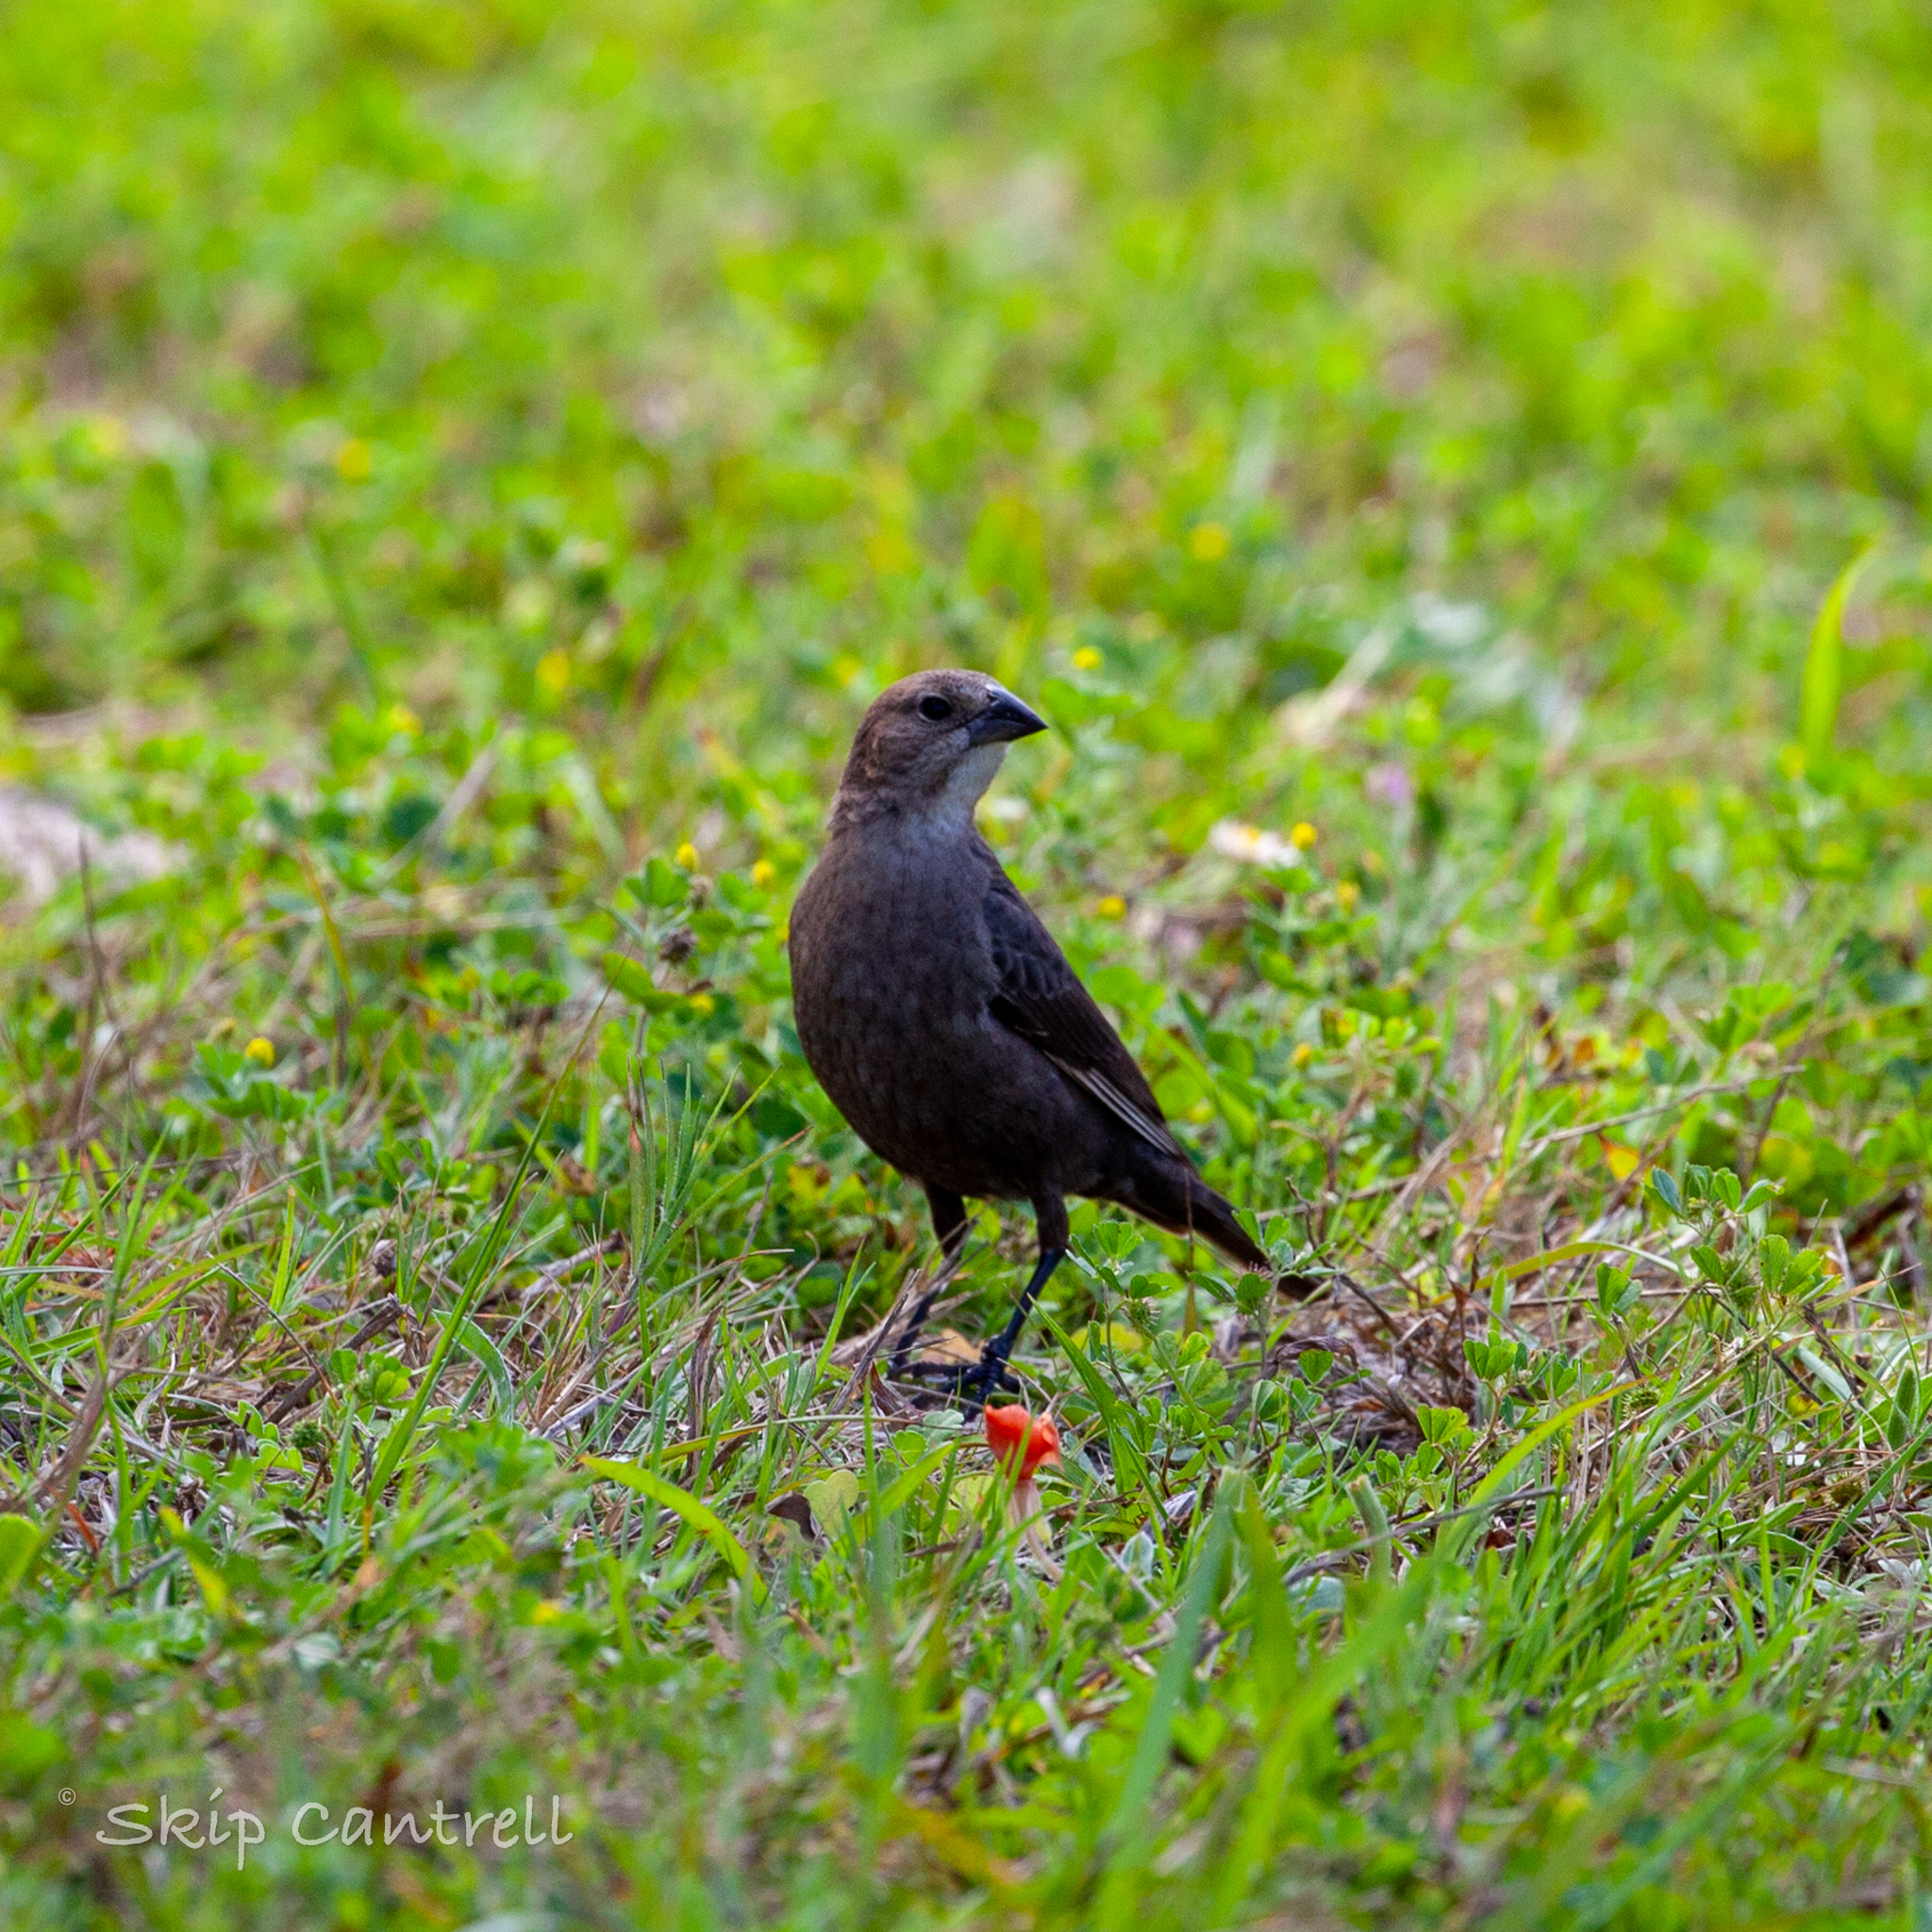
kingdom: Animalia
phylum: Chordata
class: Aves
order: Passeriformes
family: Icteridae
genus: Molothrus
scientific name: Molothrus ater
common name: Brown-headed cowbird
